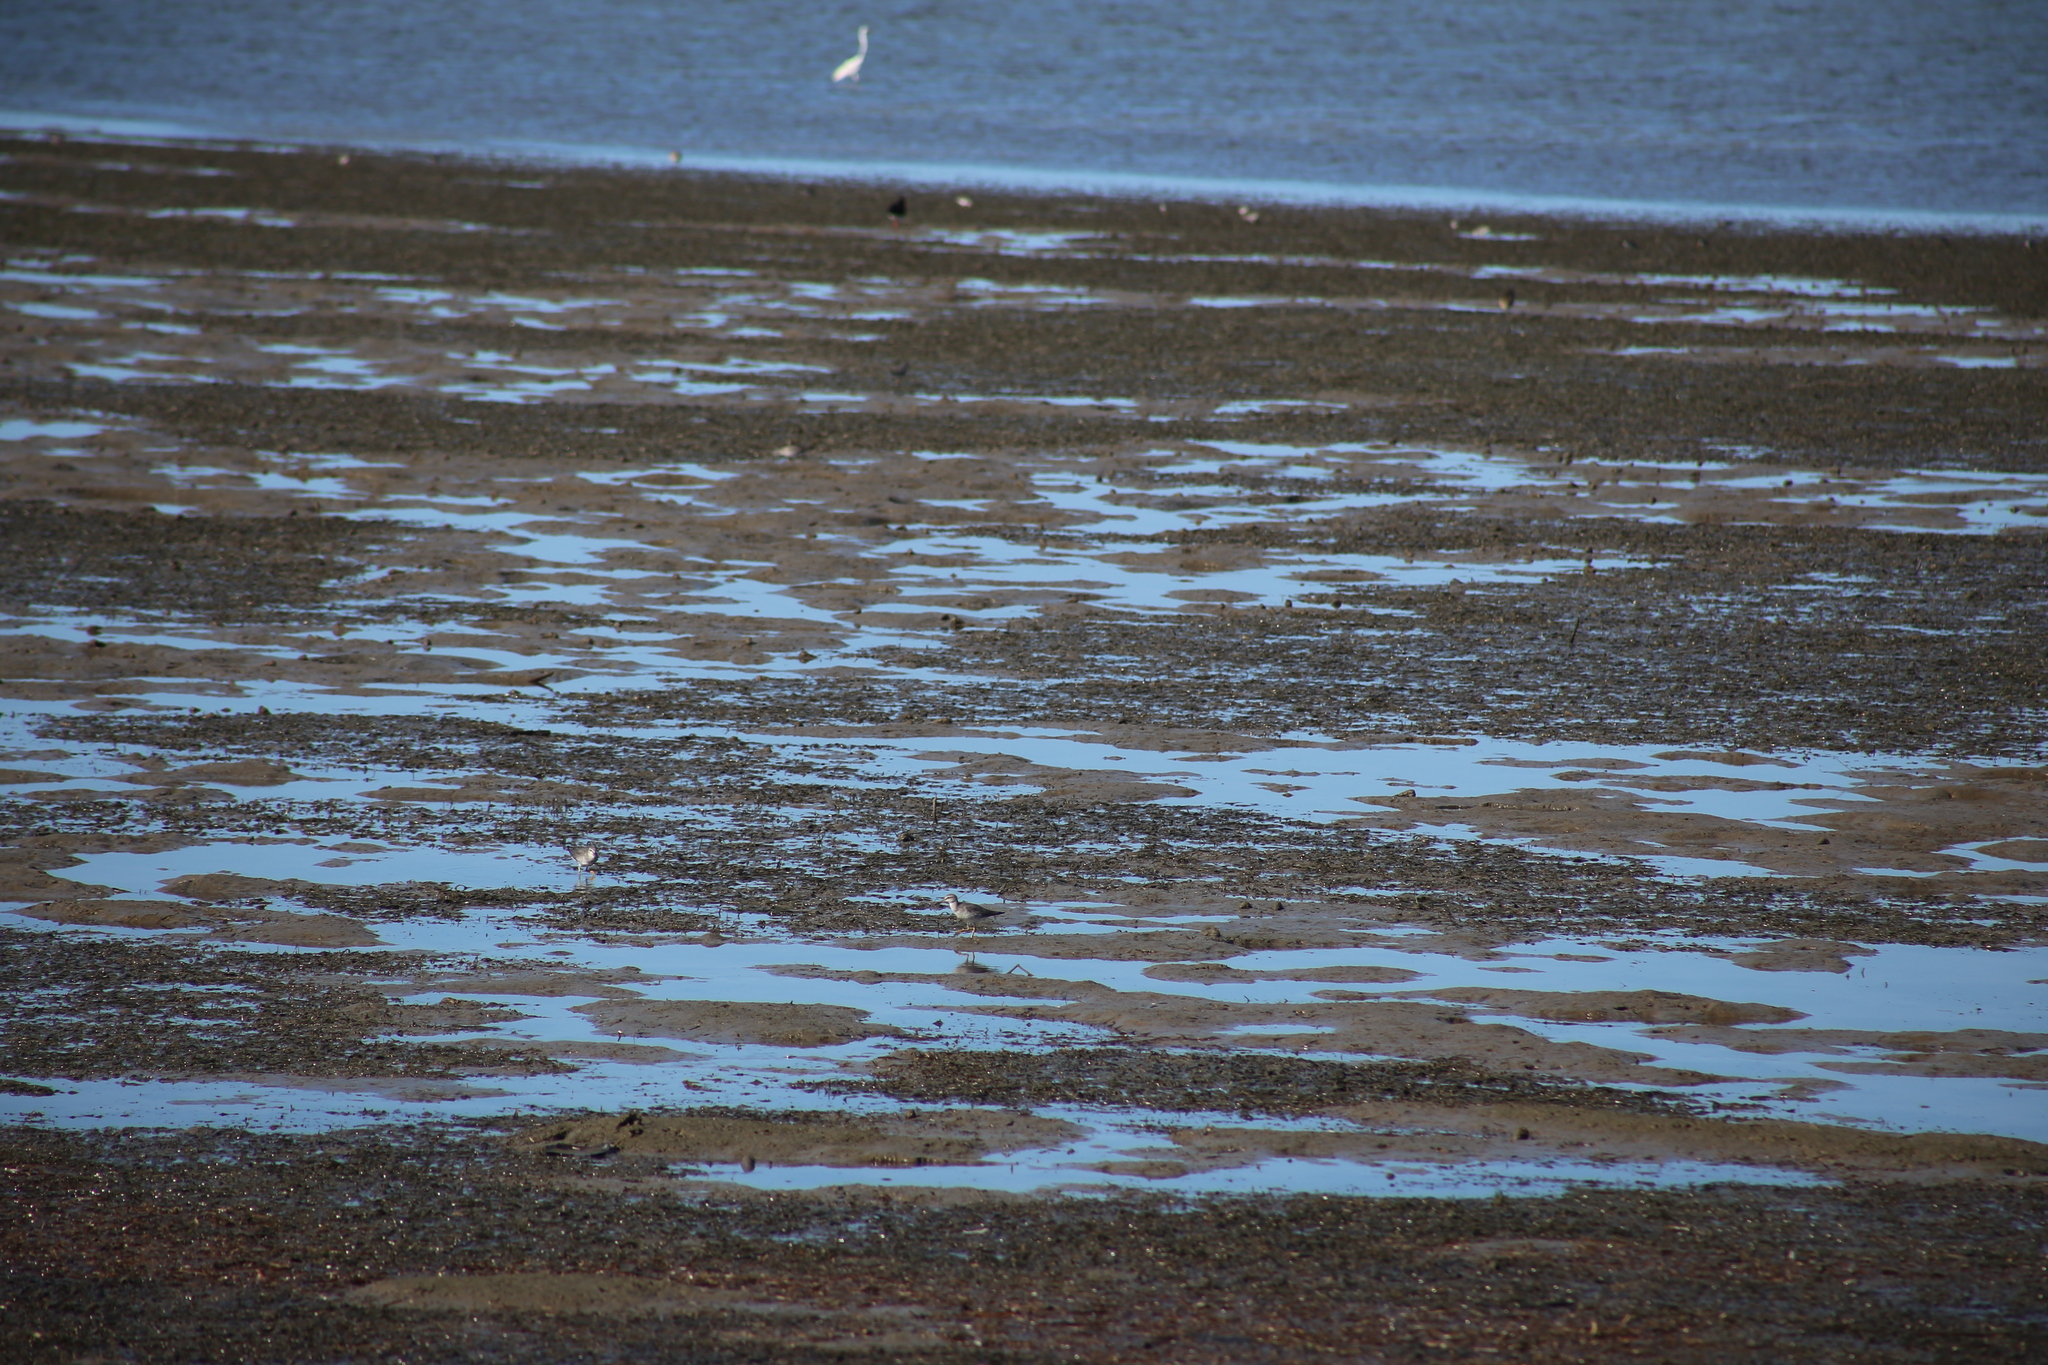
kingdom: Animalia
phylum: Chordata
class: Aves
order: Charadriiformes
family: Scolopacidae
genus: Tringa
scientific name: Tringa brevipes
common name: Grey-tailed tattler
